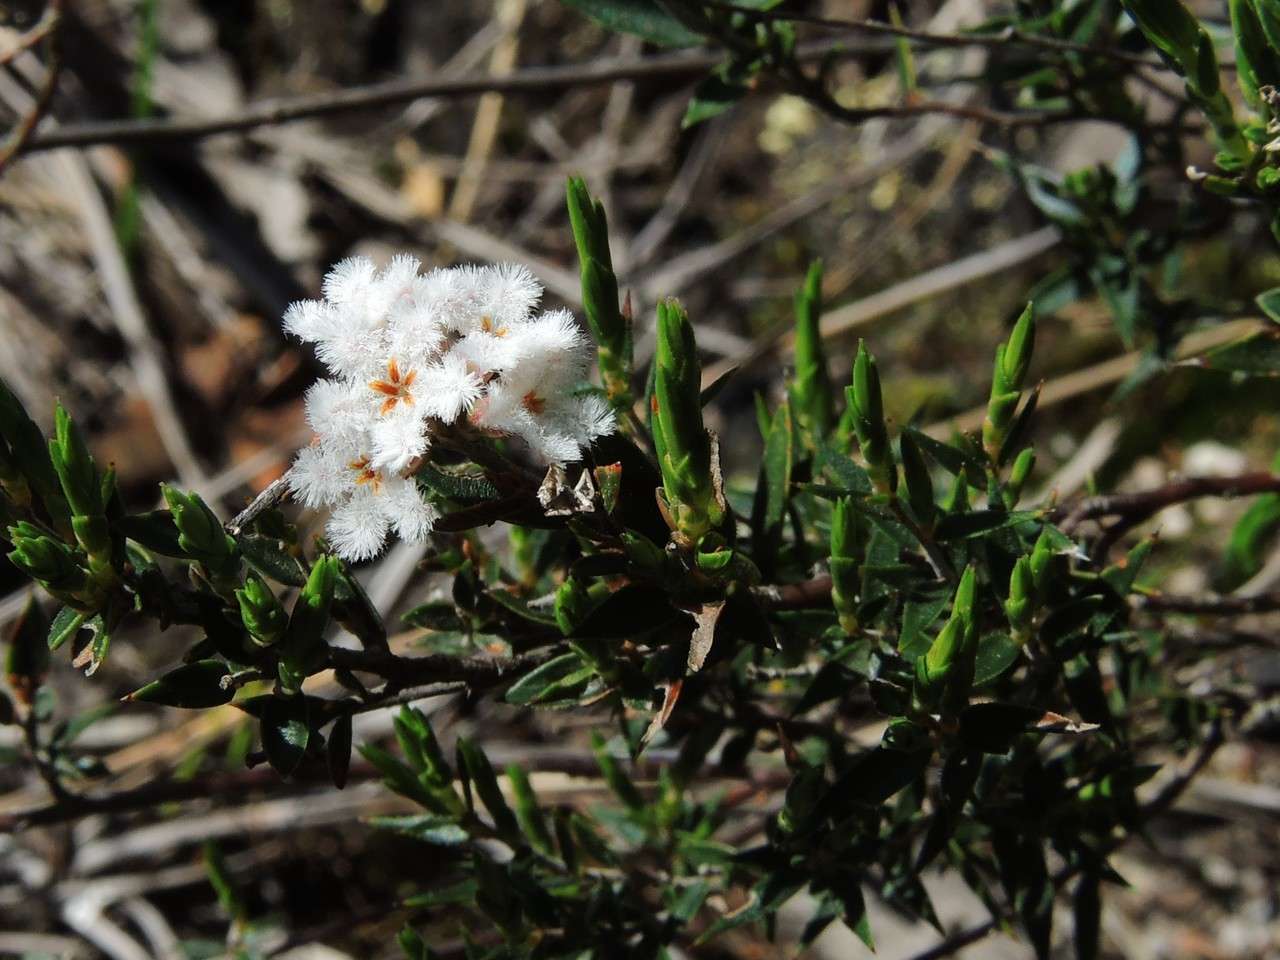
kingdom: Plantae
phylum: Tracheophyta
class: Magnoliopsida
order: Ericales
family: Ericaceae
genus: Leucopogon
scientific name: Leucopogon virgatus
